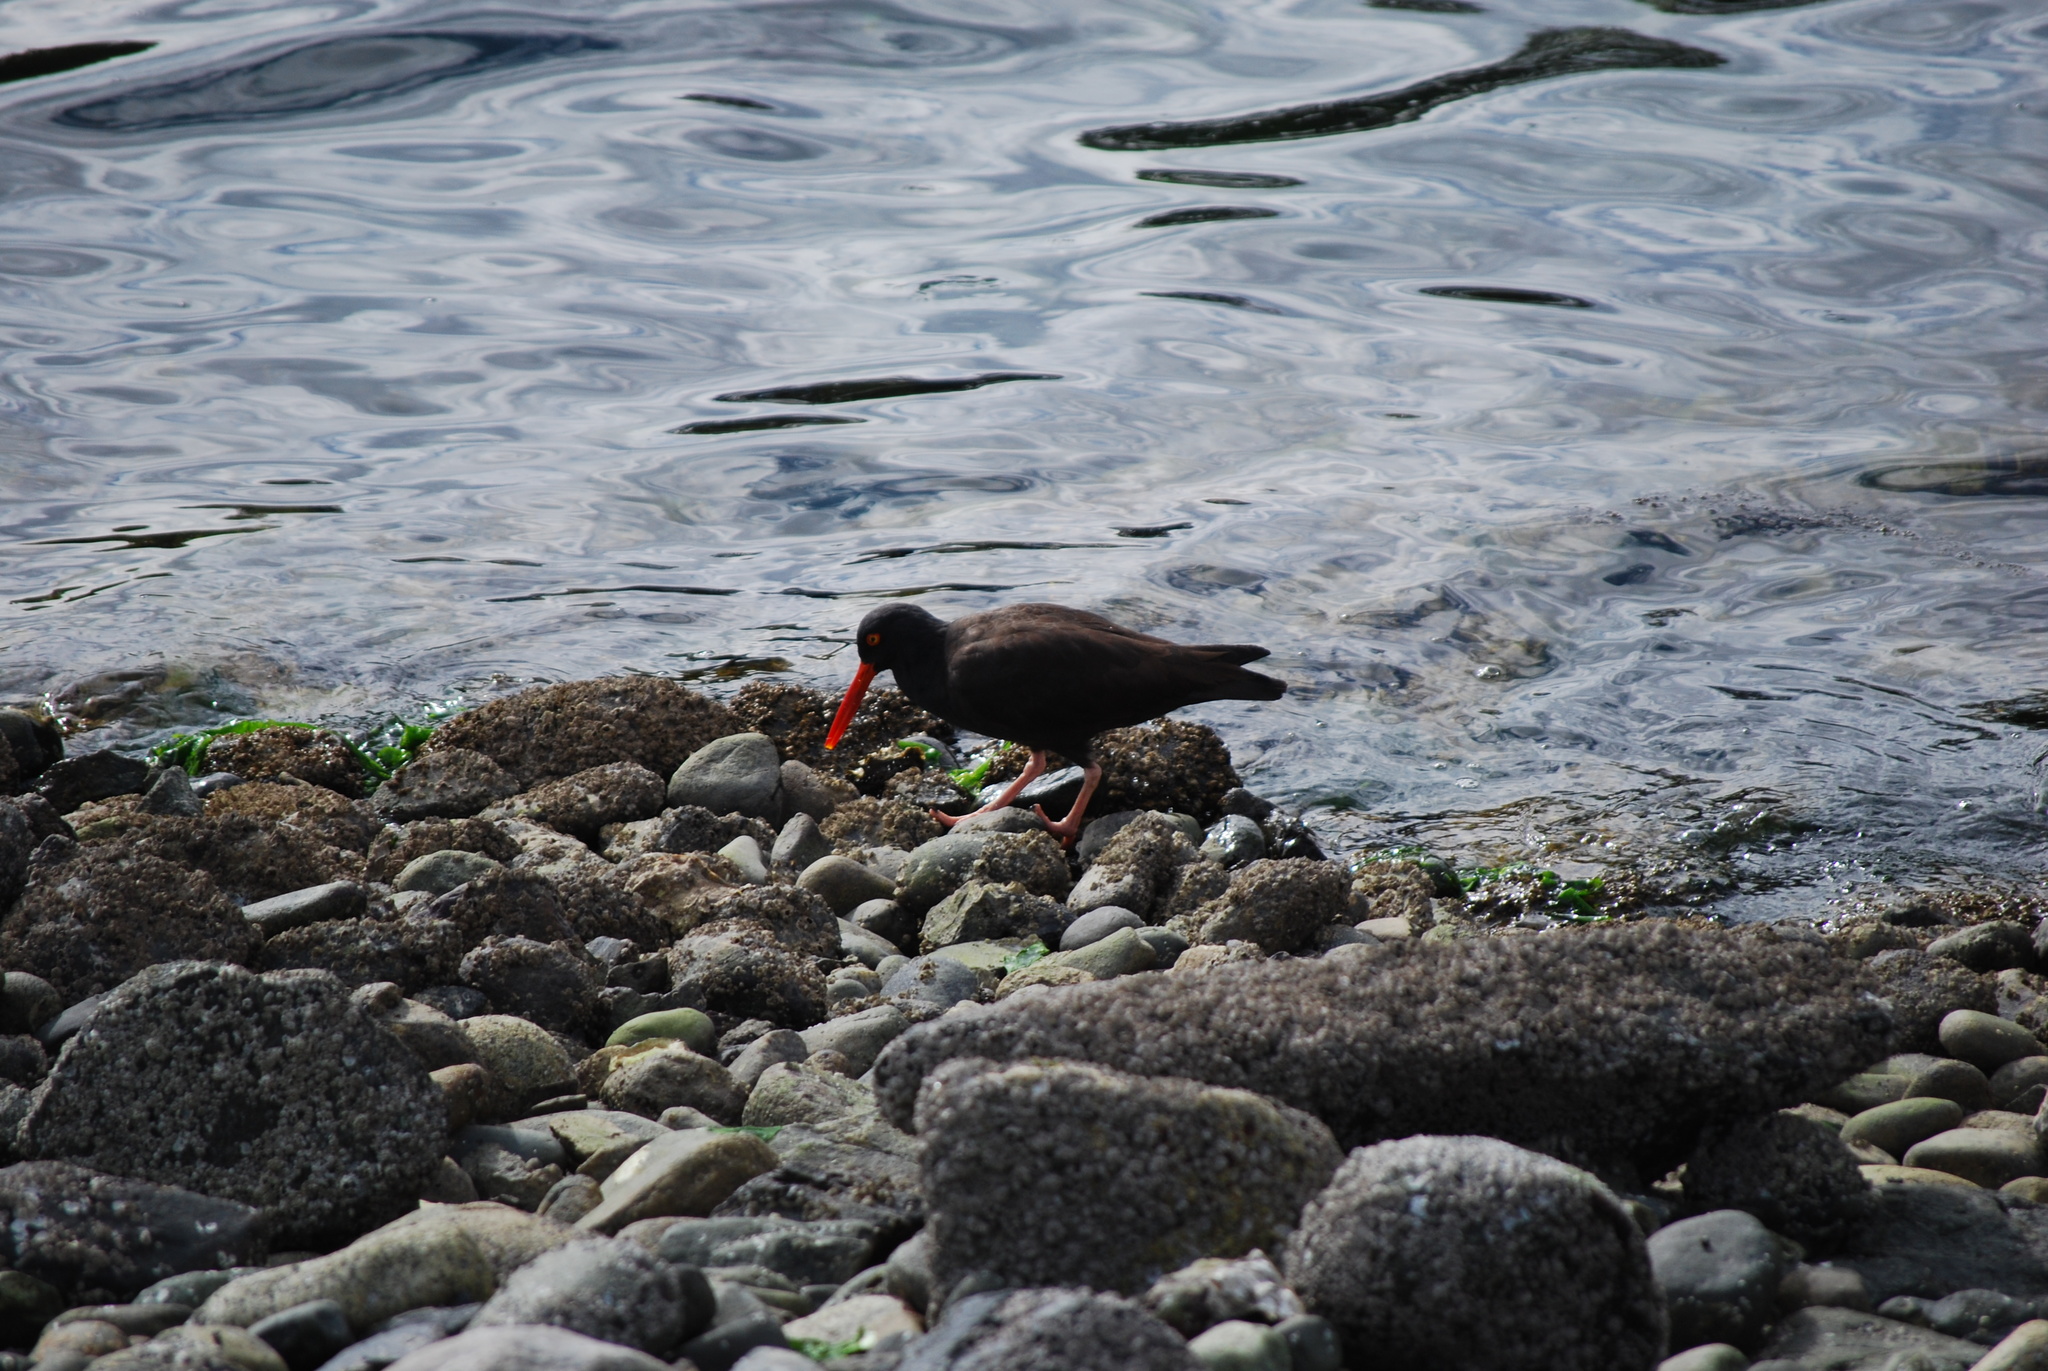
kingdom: Animalia
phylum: Chordata
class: Aves
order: Charadriiformes
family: Haematopodidae
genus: Haematopus
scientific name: Haematopus bachmani
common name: Black oystercatcher
